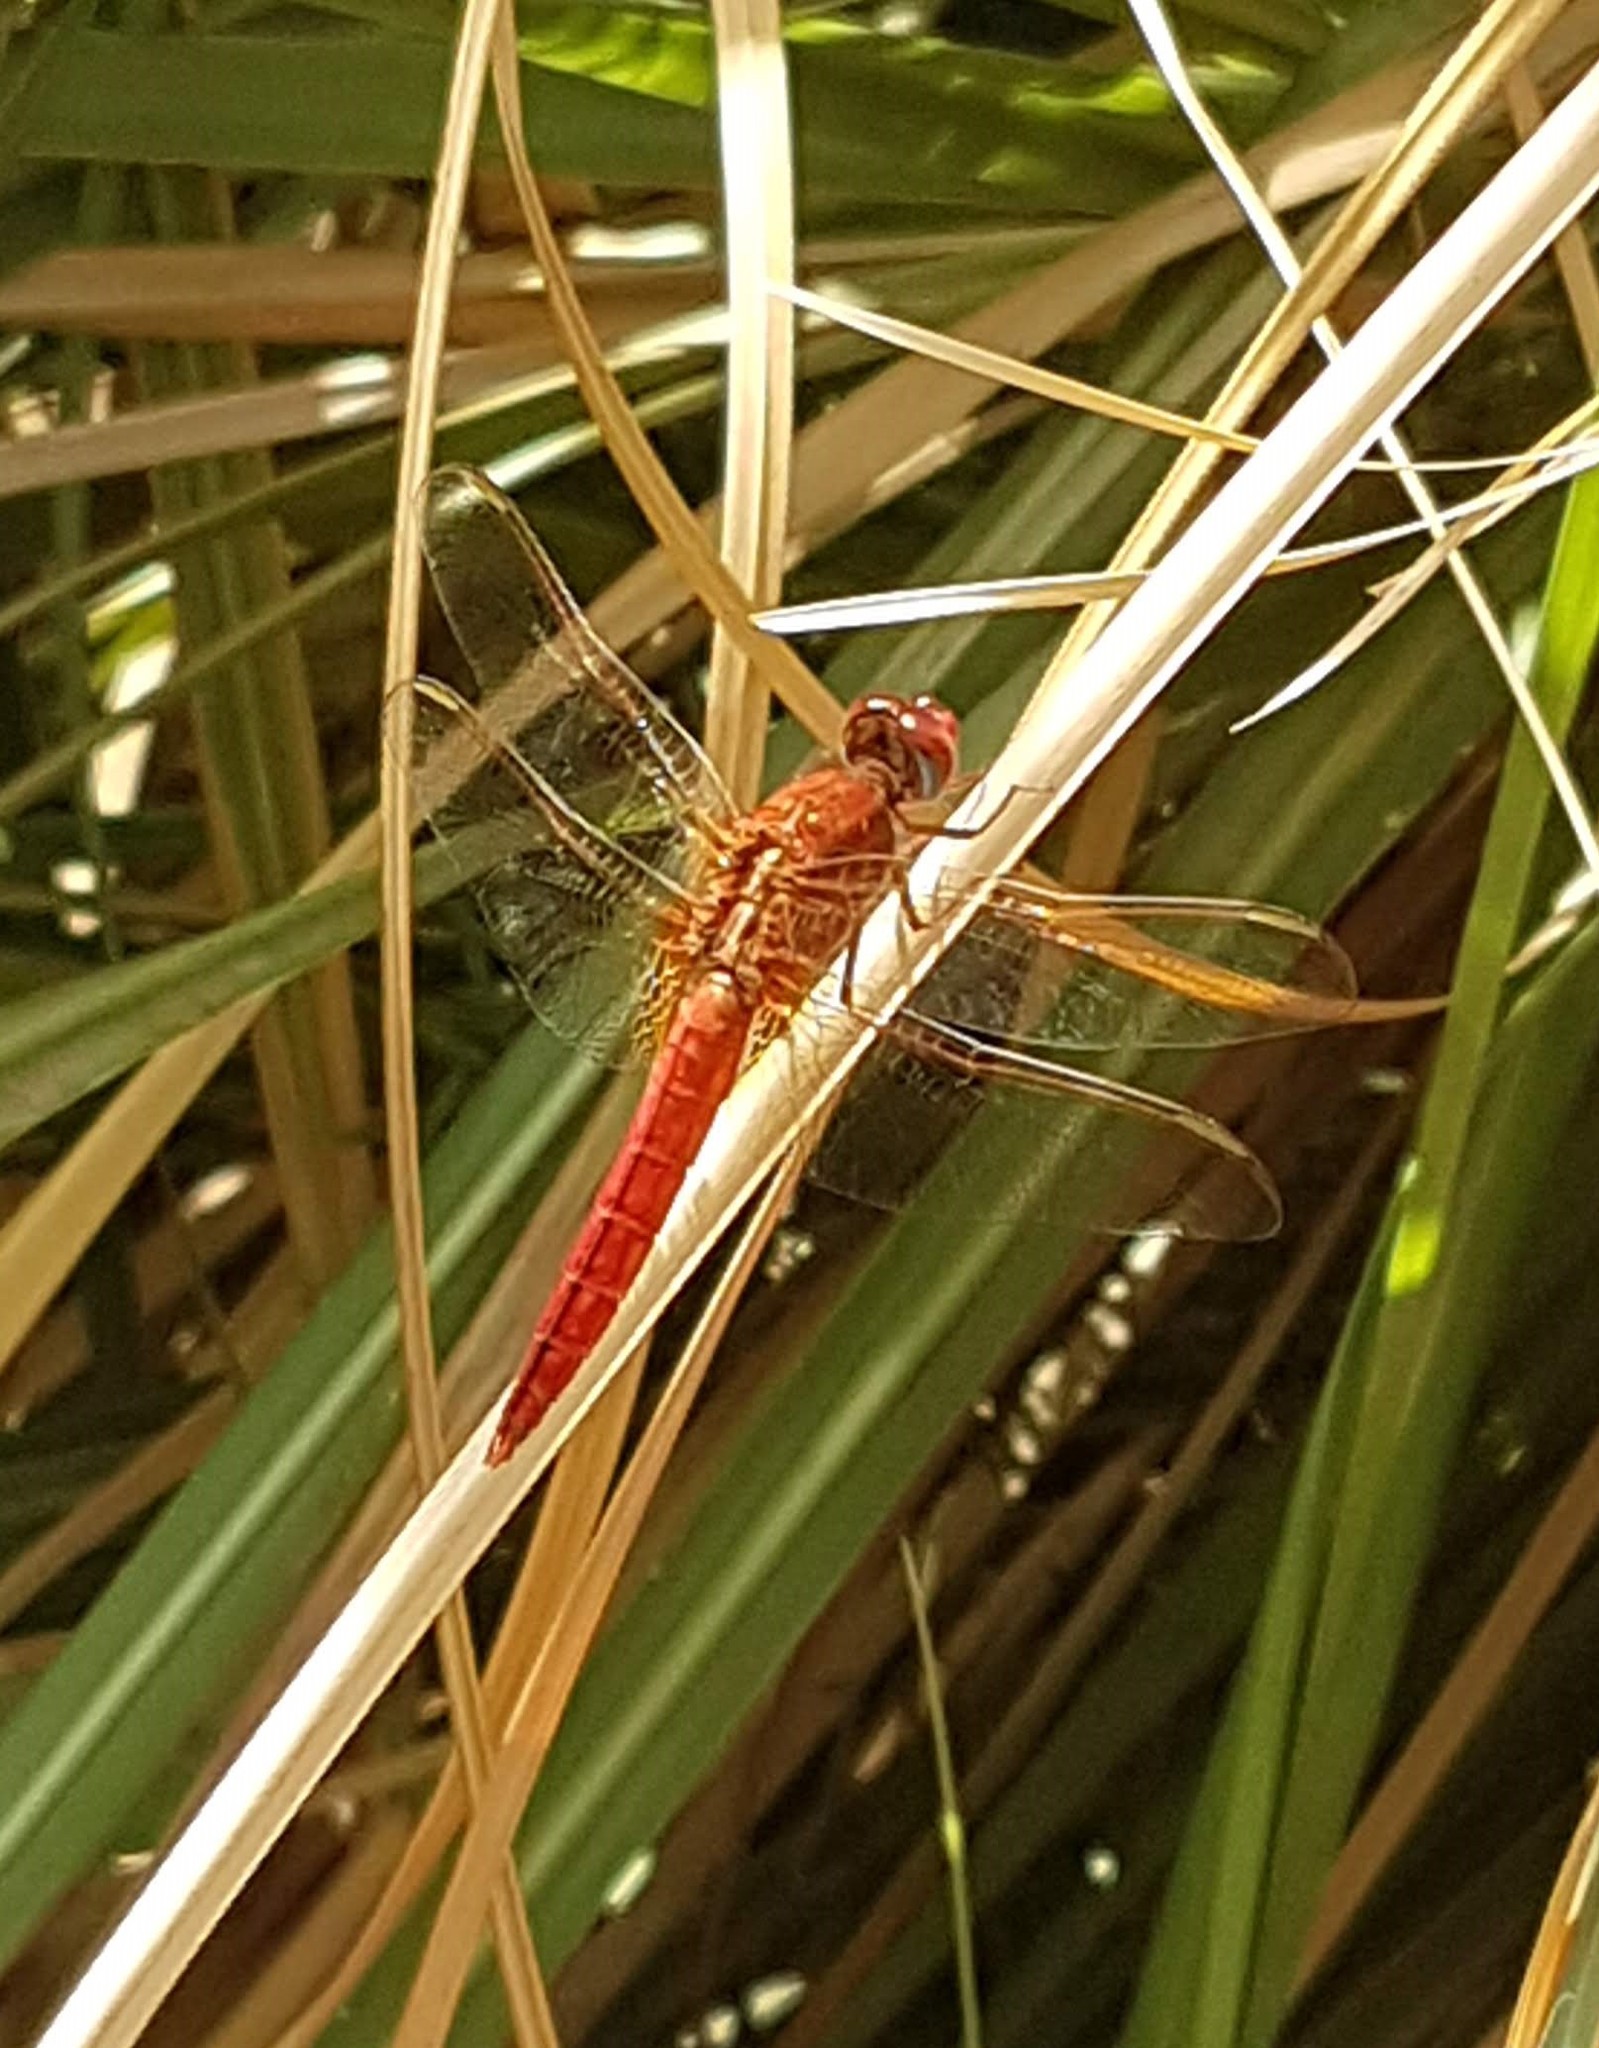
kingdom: Animalia
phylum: Arthropoda
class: Insecta
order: Odonata
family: Libellulidae
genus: Crocothemis
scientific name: Crocothemis erythraea
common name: Scarlet dragonfly
